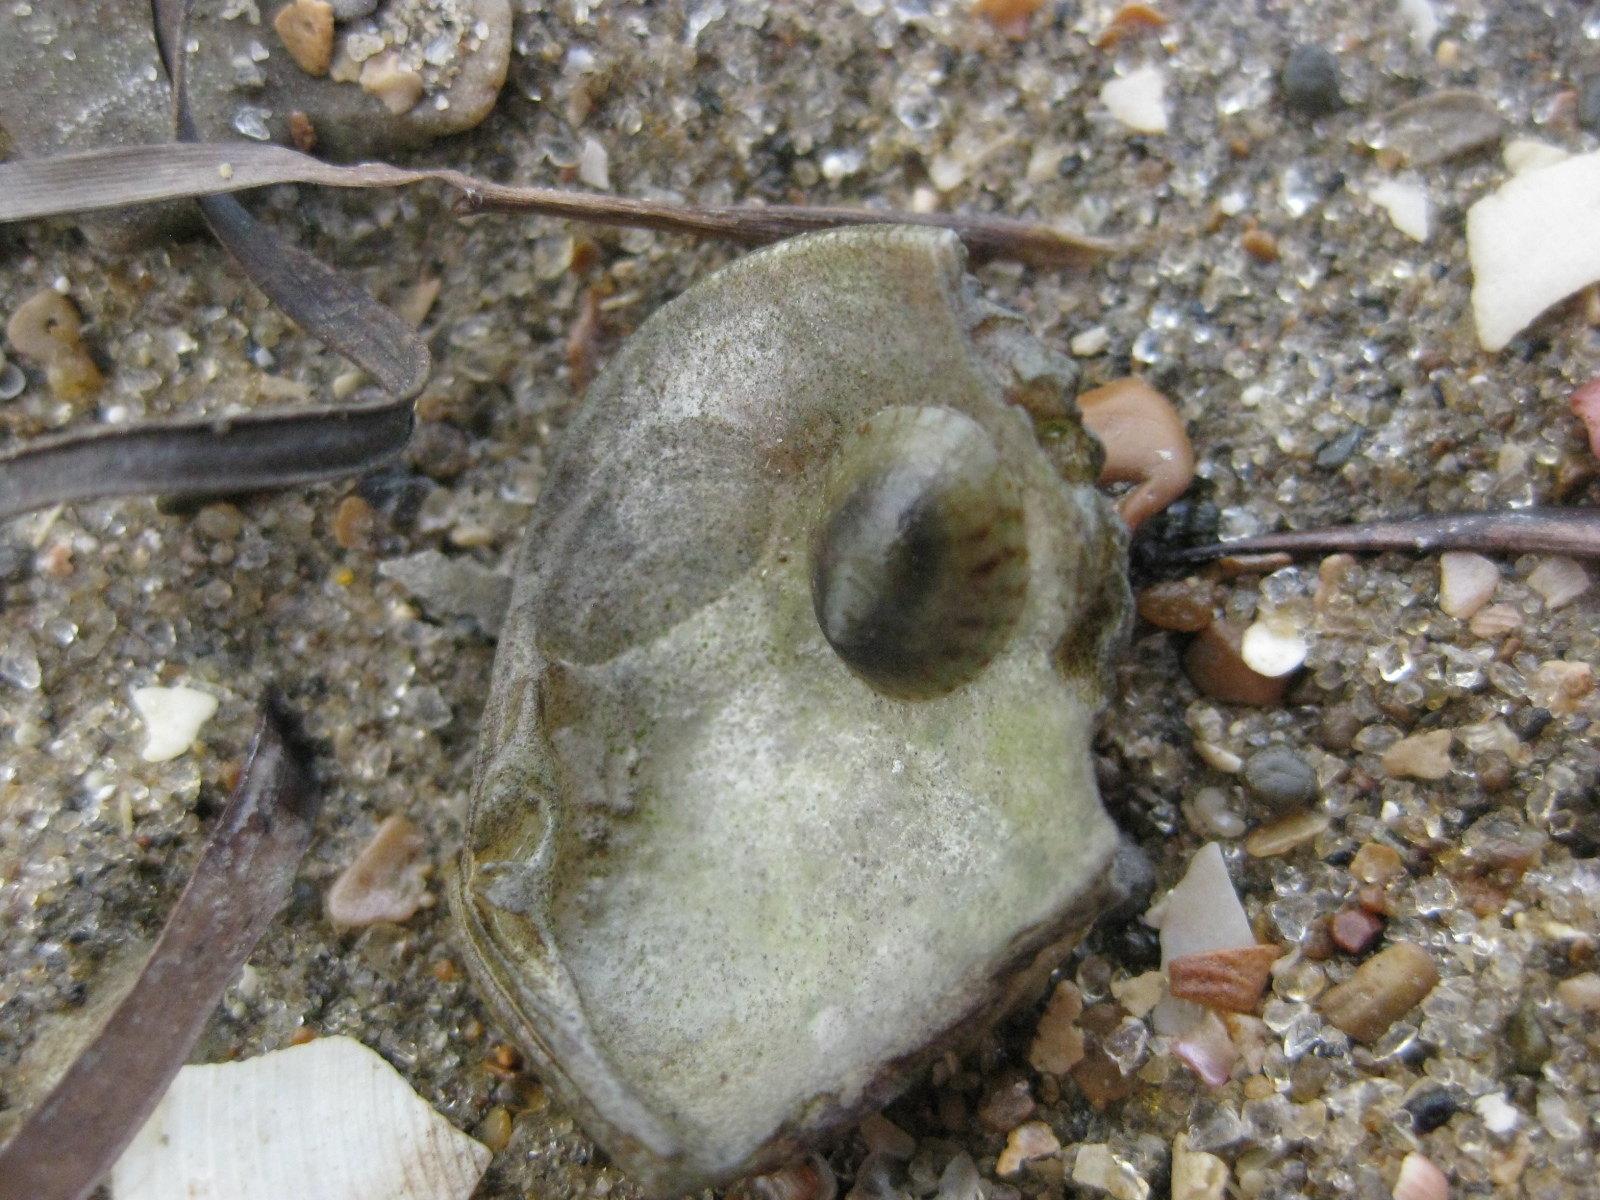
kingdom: Animalia
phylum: Mollusca
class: Gastropoda
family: Lottiidae
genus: Notoacmea
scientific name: Notoacmea potae
